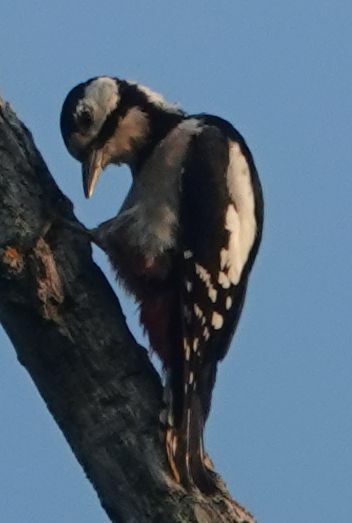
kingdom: Animalia
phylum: Chordata
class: Aves
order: Piciformes
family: Picidae
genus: Dendrocopos
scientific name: Dendrocopos major
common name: Great spotted woodpecker
